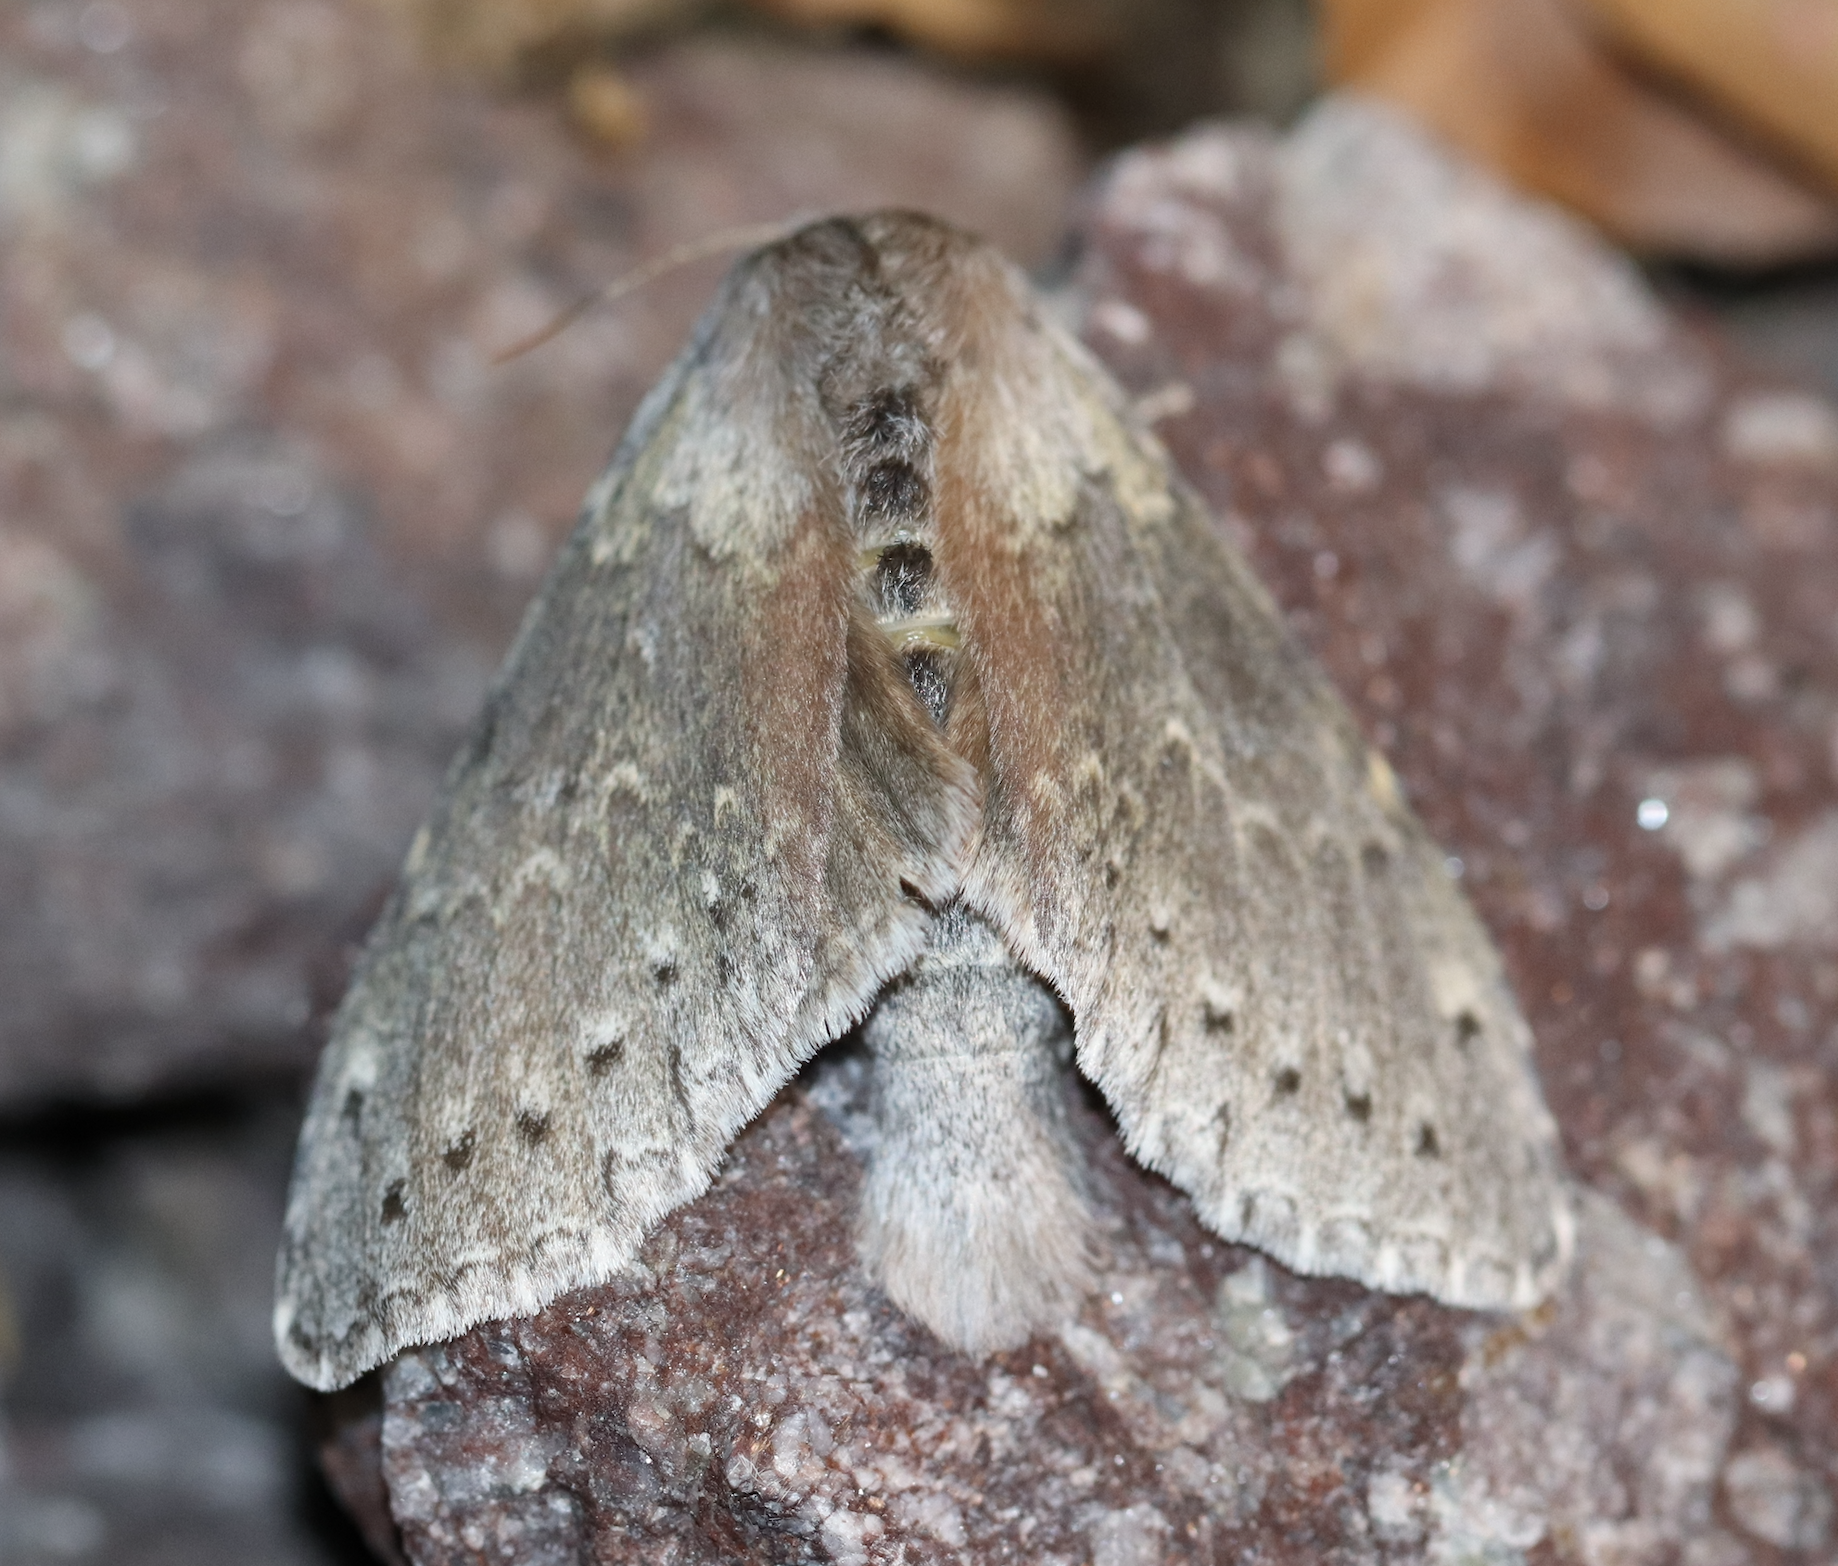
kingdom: Animalia
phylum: Arthropoda
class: Insecta
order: Lepidoptera
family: Notodontidae
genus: Stauropus
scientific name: Stauropus fagi
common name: Lobster moth
